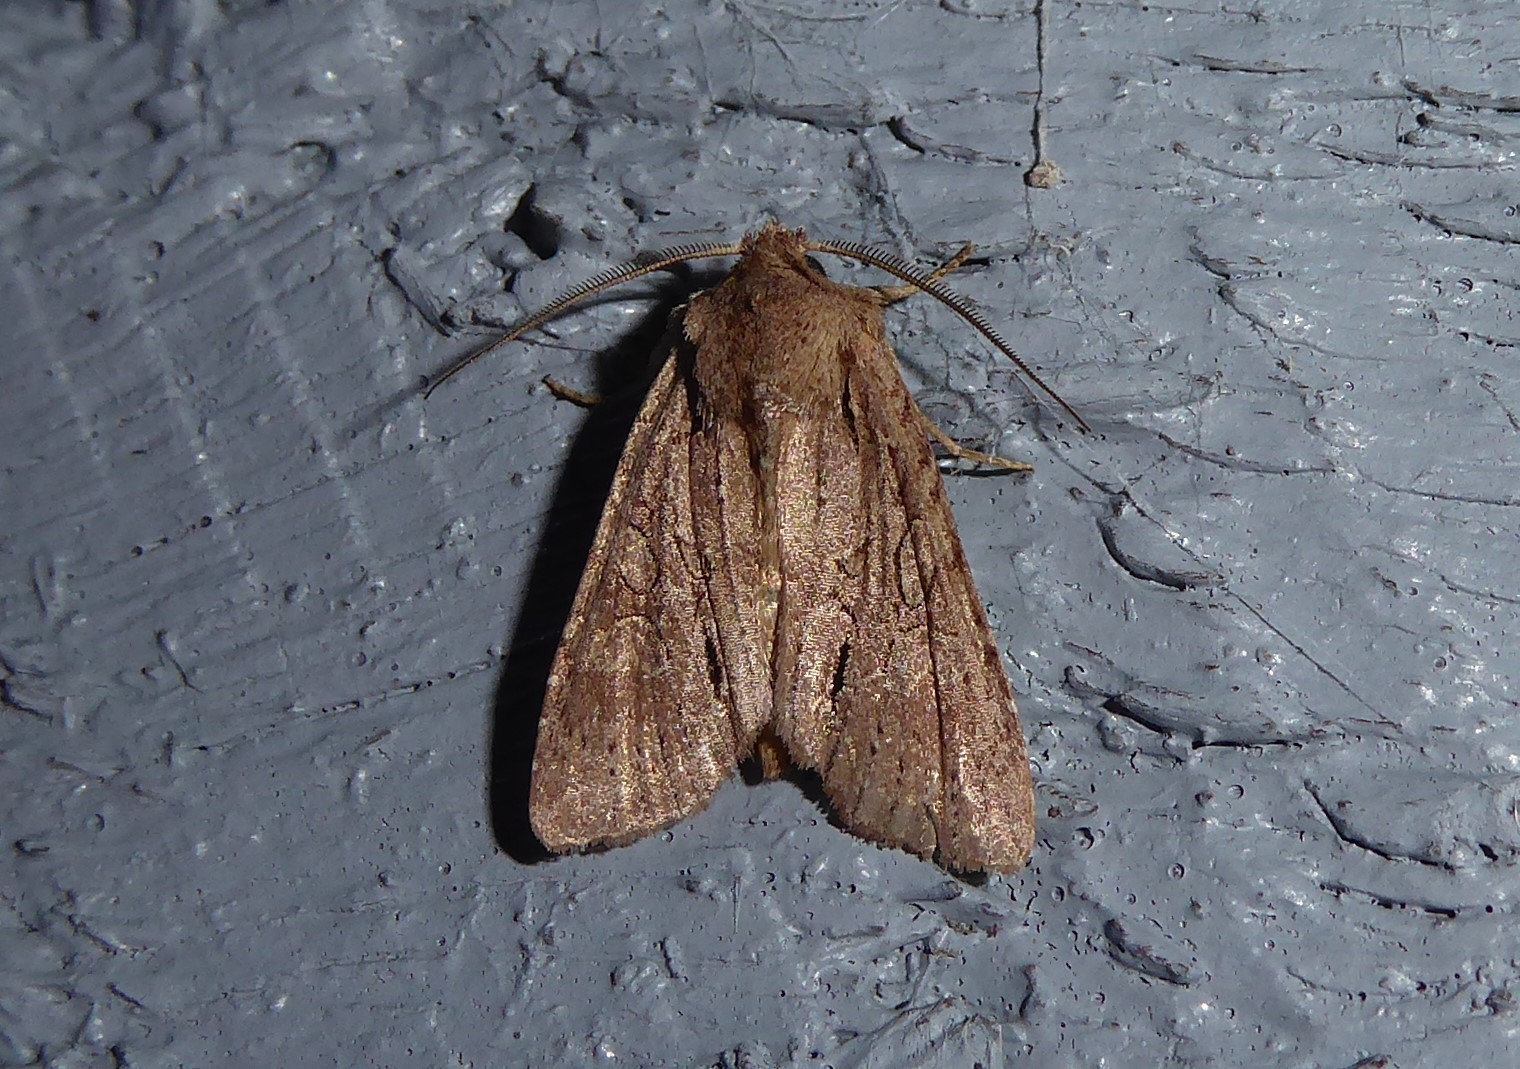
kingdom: Animalia
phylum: Arthropoda
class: Insecta
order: Lepidoptera
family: Noctuidae
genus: Ichneutica
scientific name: Ichneutica
